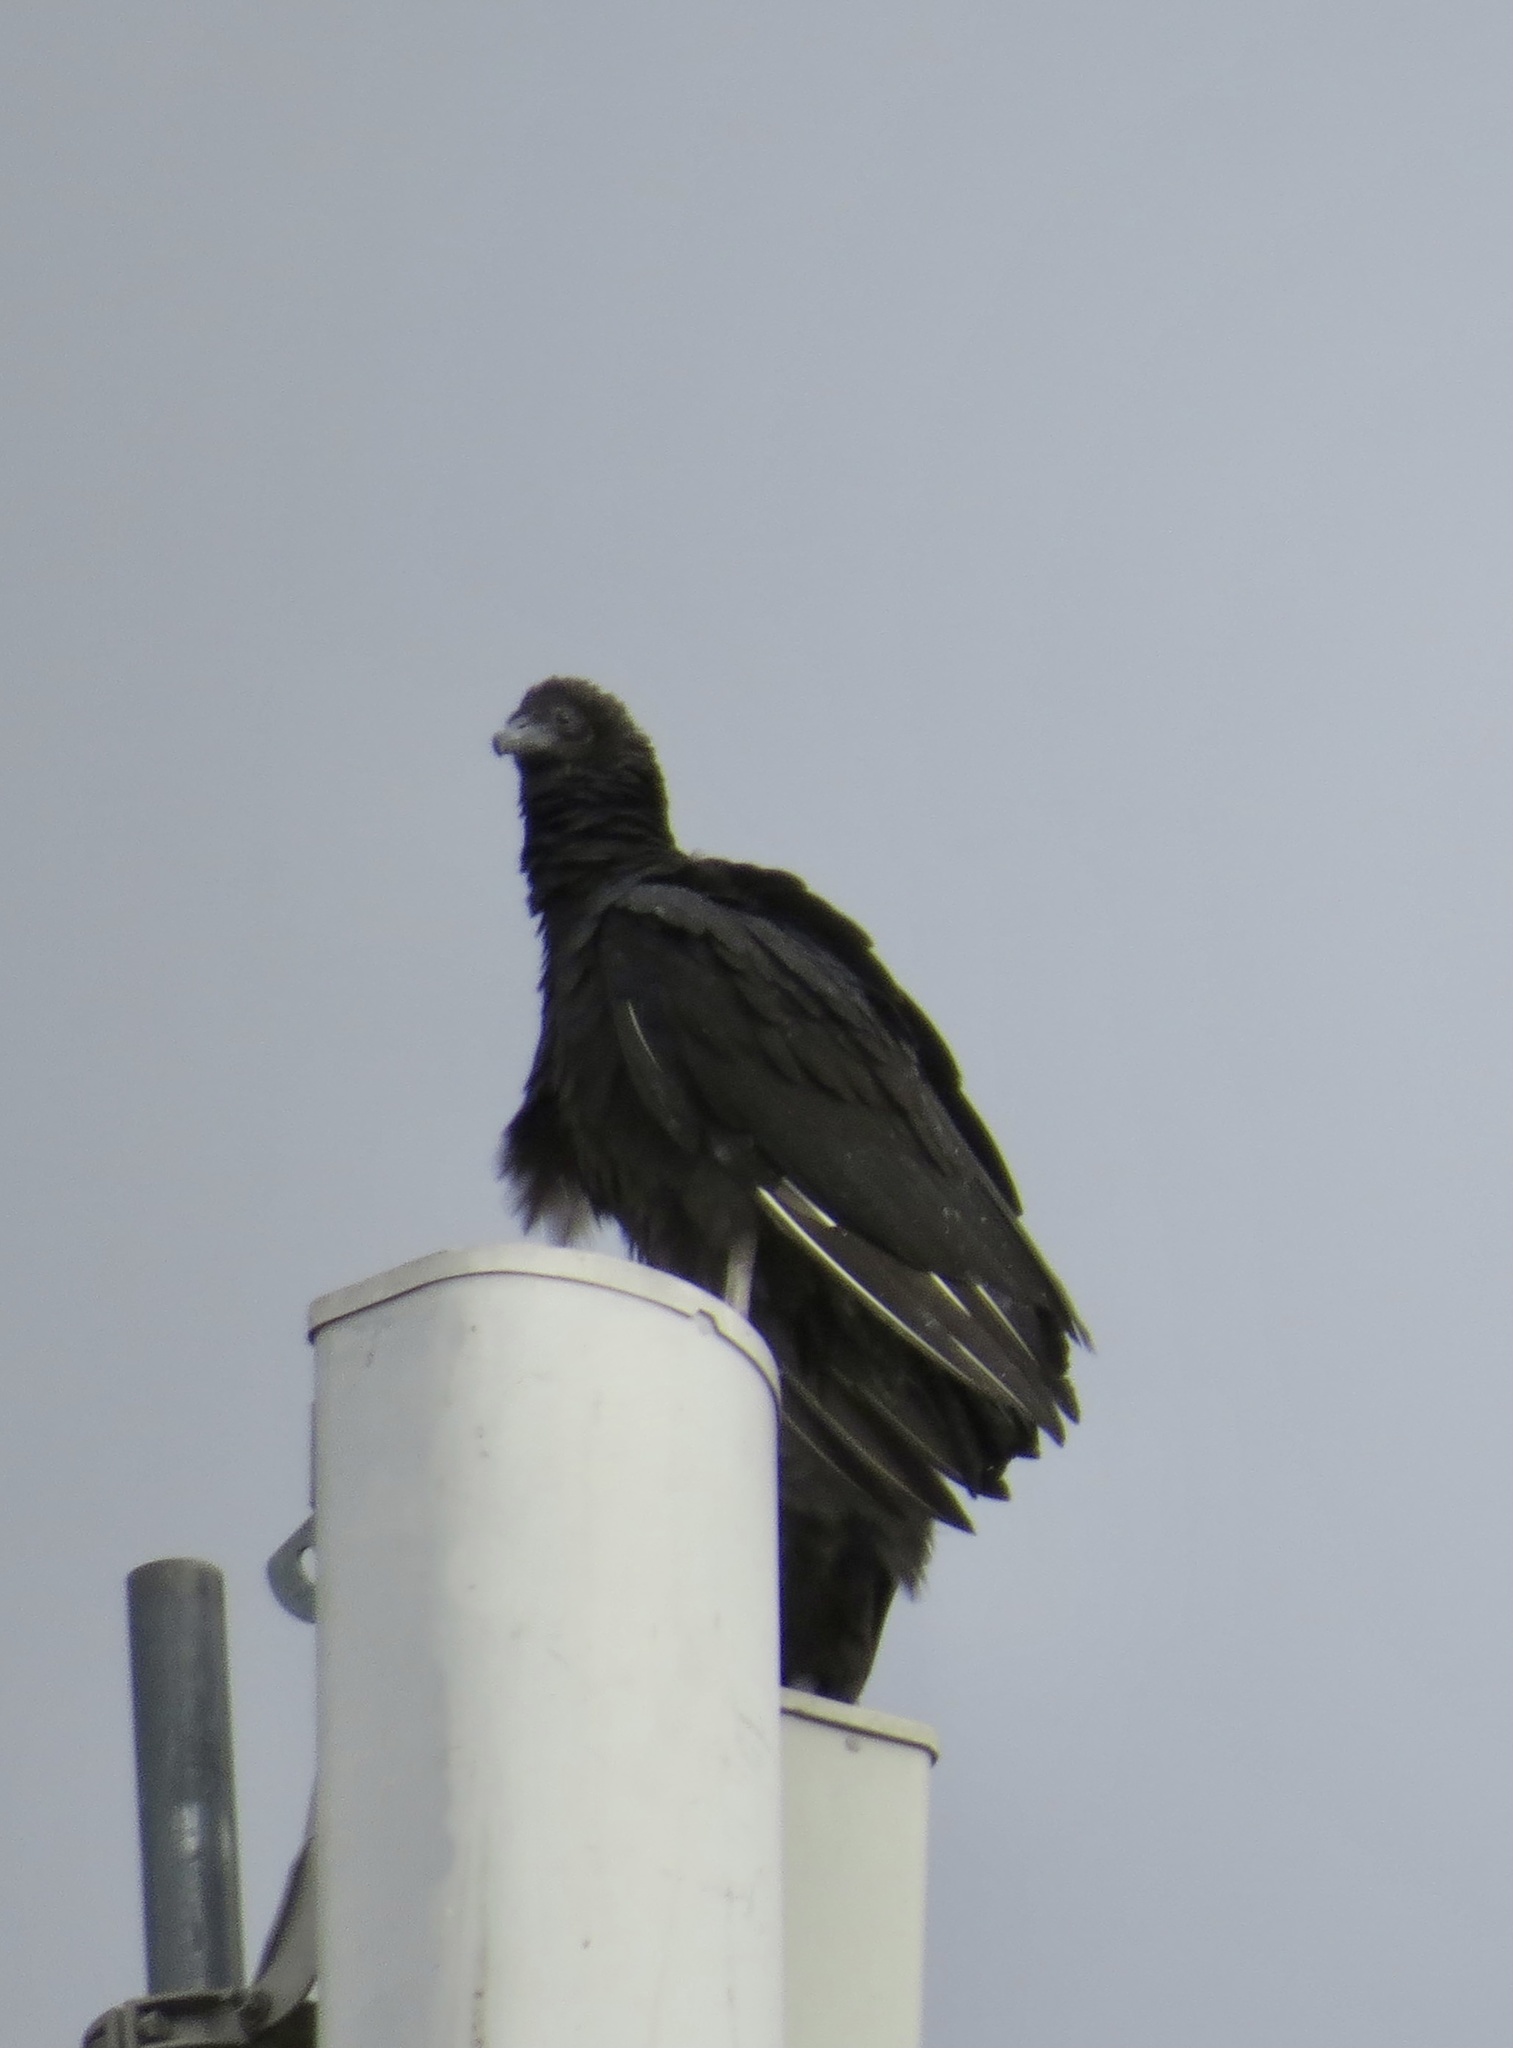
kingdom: Animalia
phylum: Chordata
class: Aves
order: Accipitriformes
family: Cathartidae
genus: Coragyps
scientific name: Coragyps atratus
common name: Black vulture
